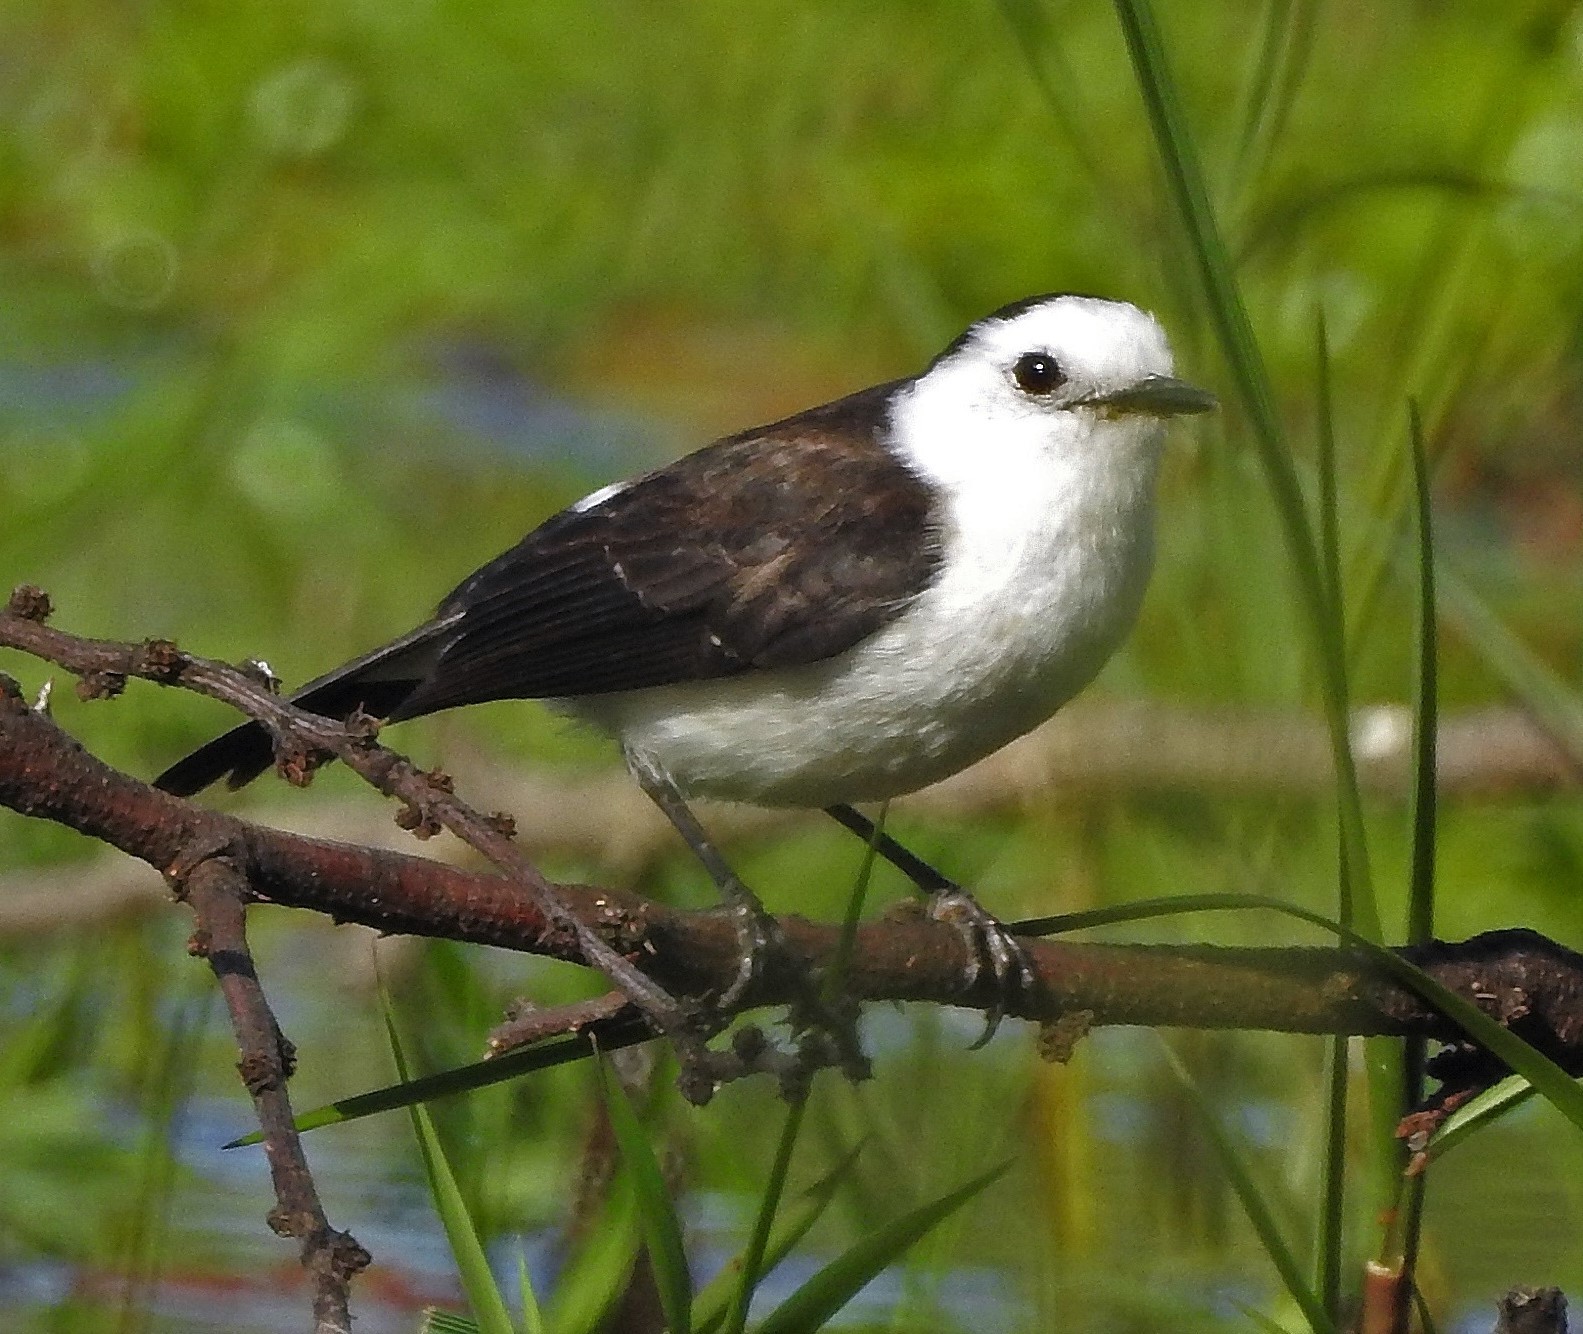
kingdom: Animalia
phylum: Chordata
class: Aves
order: Passeriformes
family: Tyrannidae
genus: Fluvicola
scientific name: Fluvicola pica
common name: Pied water-tyrant
